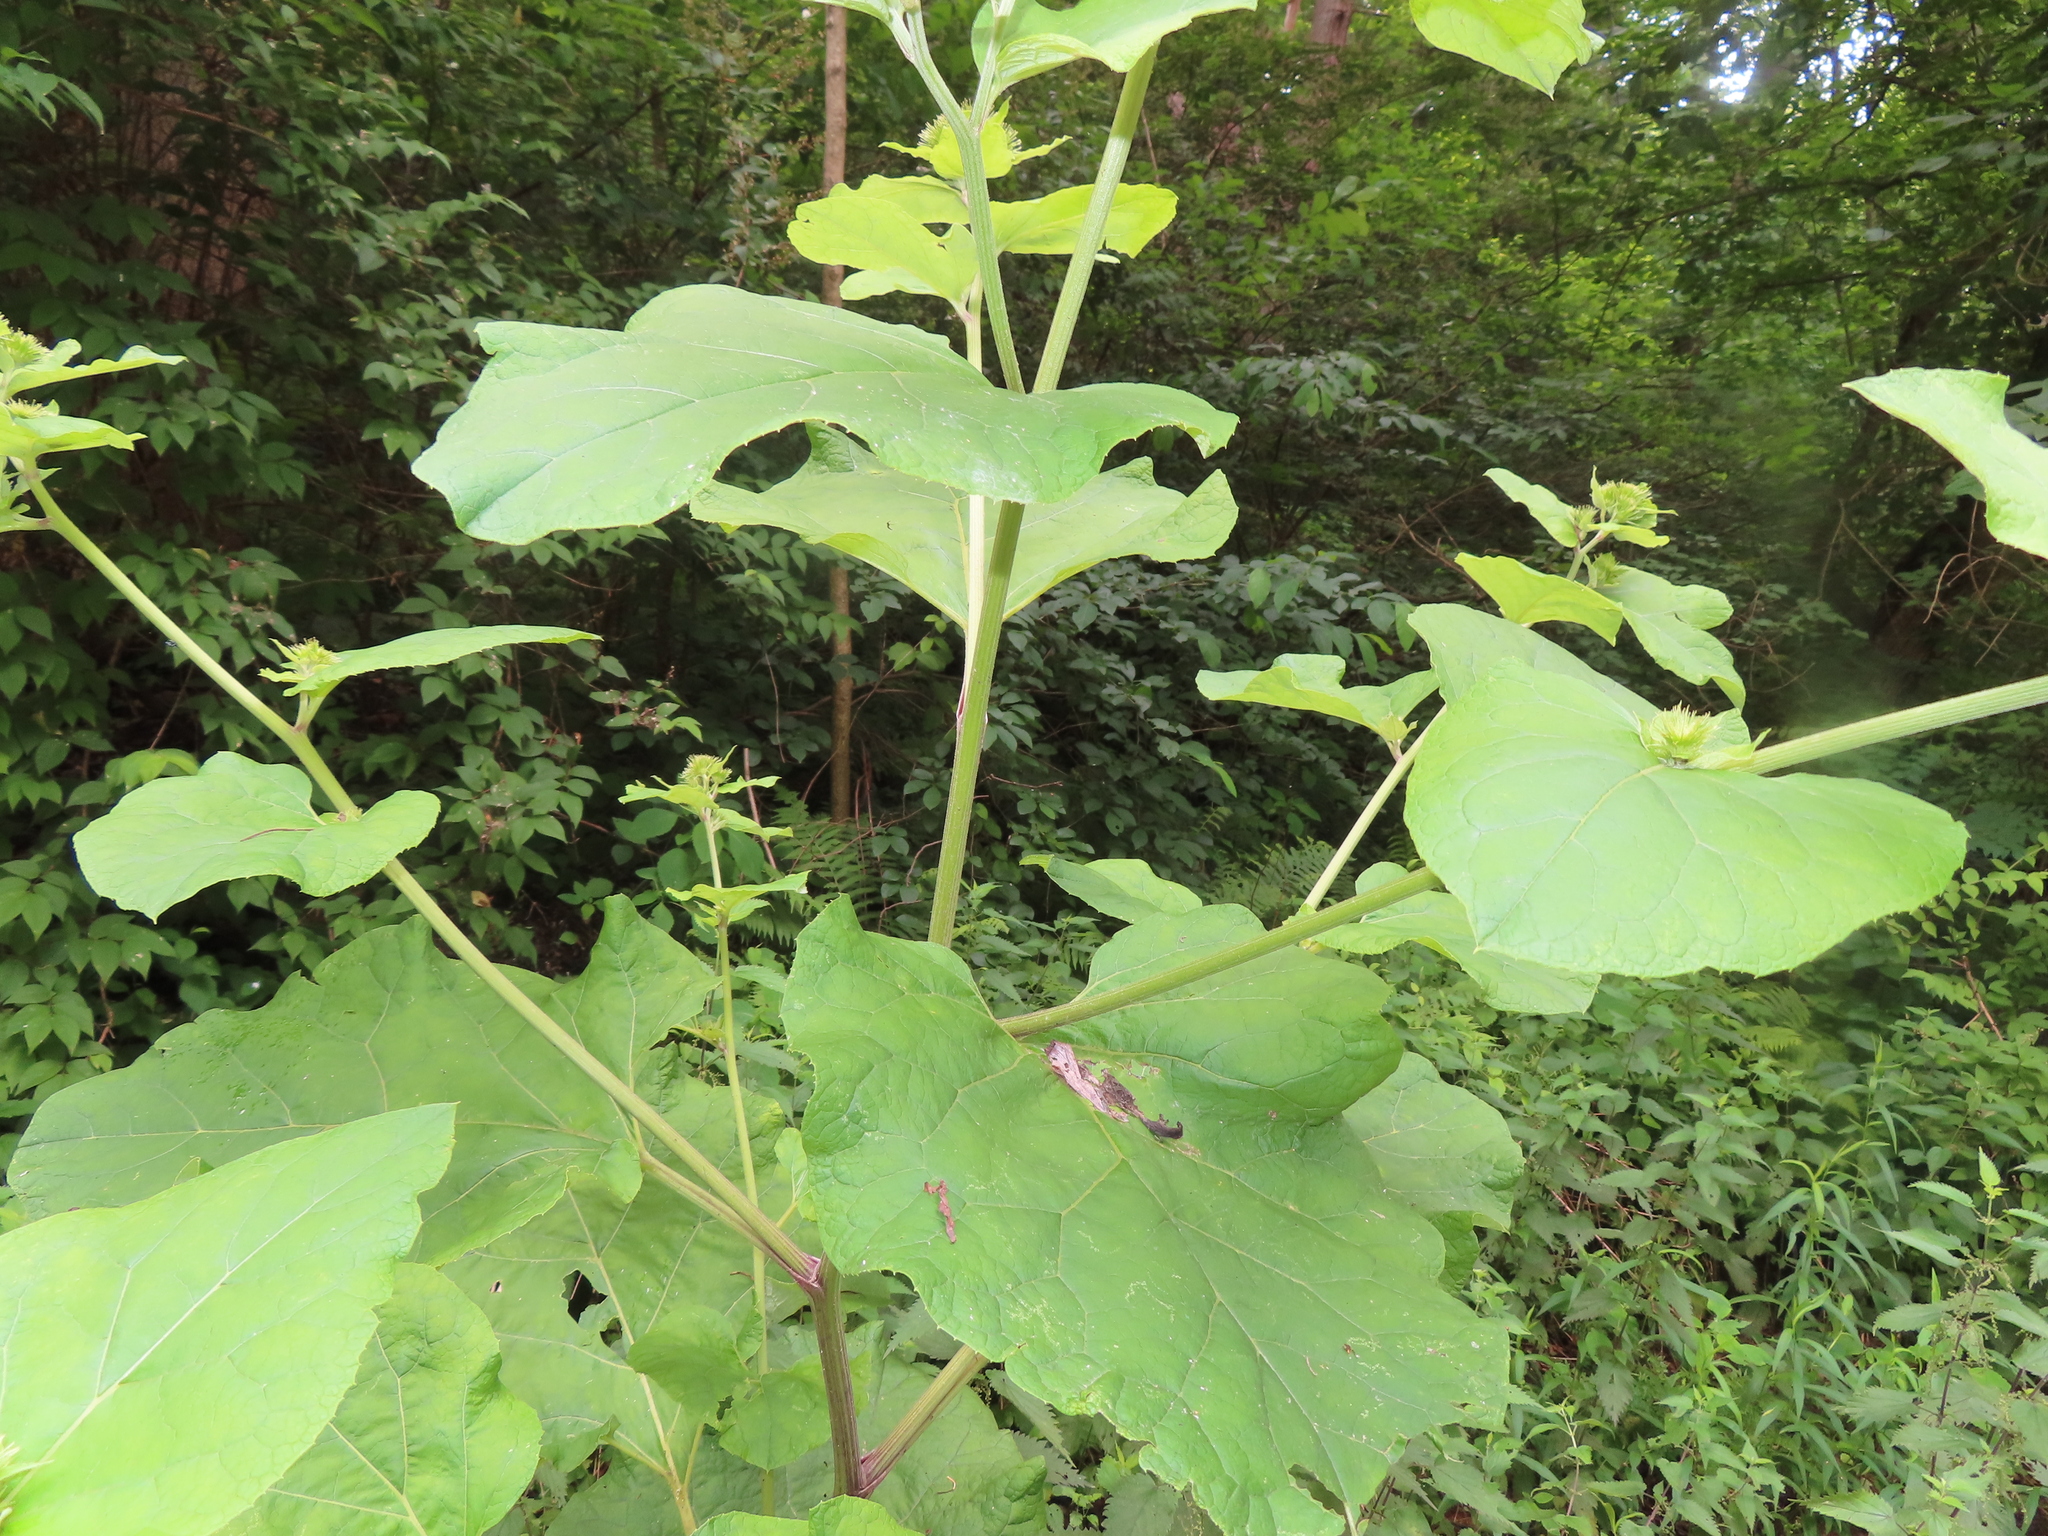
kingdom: Plantae
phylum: Tracheophyta
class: Magnoliopsida
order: Asterales
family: Asteraceae
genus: Arctium
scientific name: Arctium
